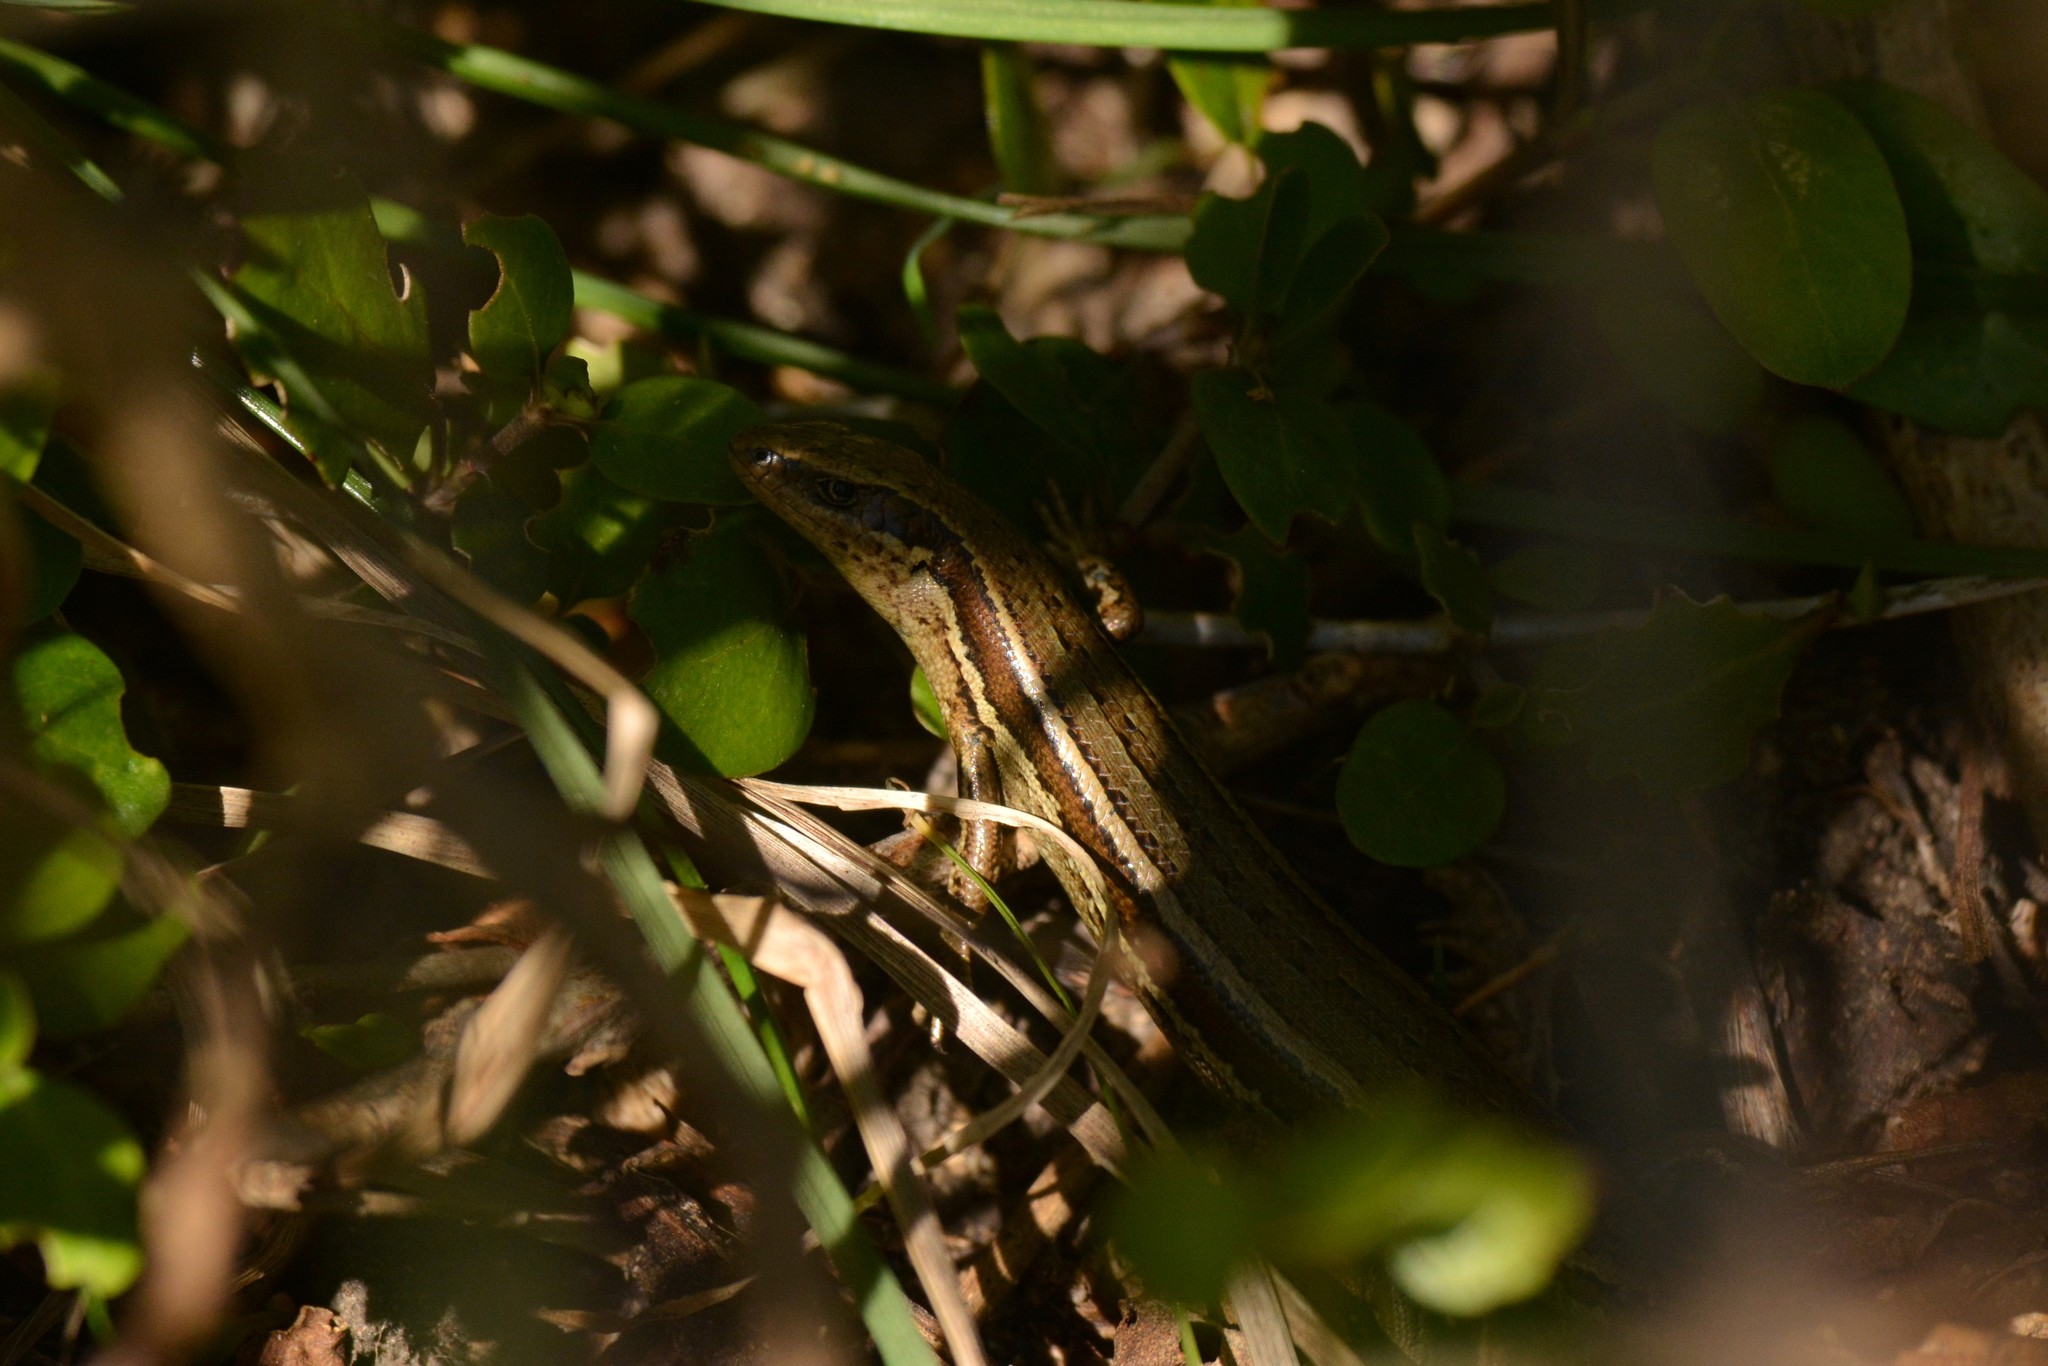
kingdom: Animalia
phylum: Chordata
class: Squamata
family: Scincidae
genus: Oligosoma
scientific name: Oligosoma polychroma
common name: Common new zealand skink
